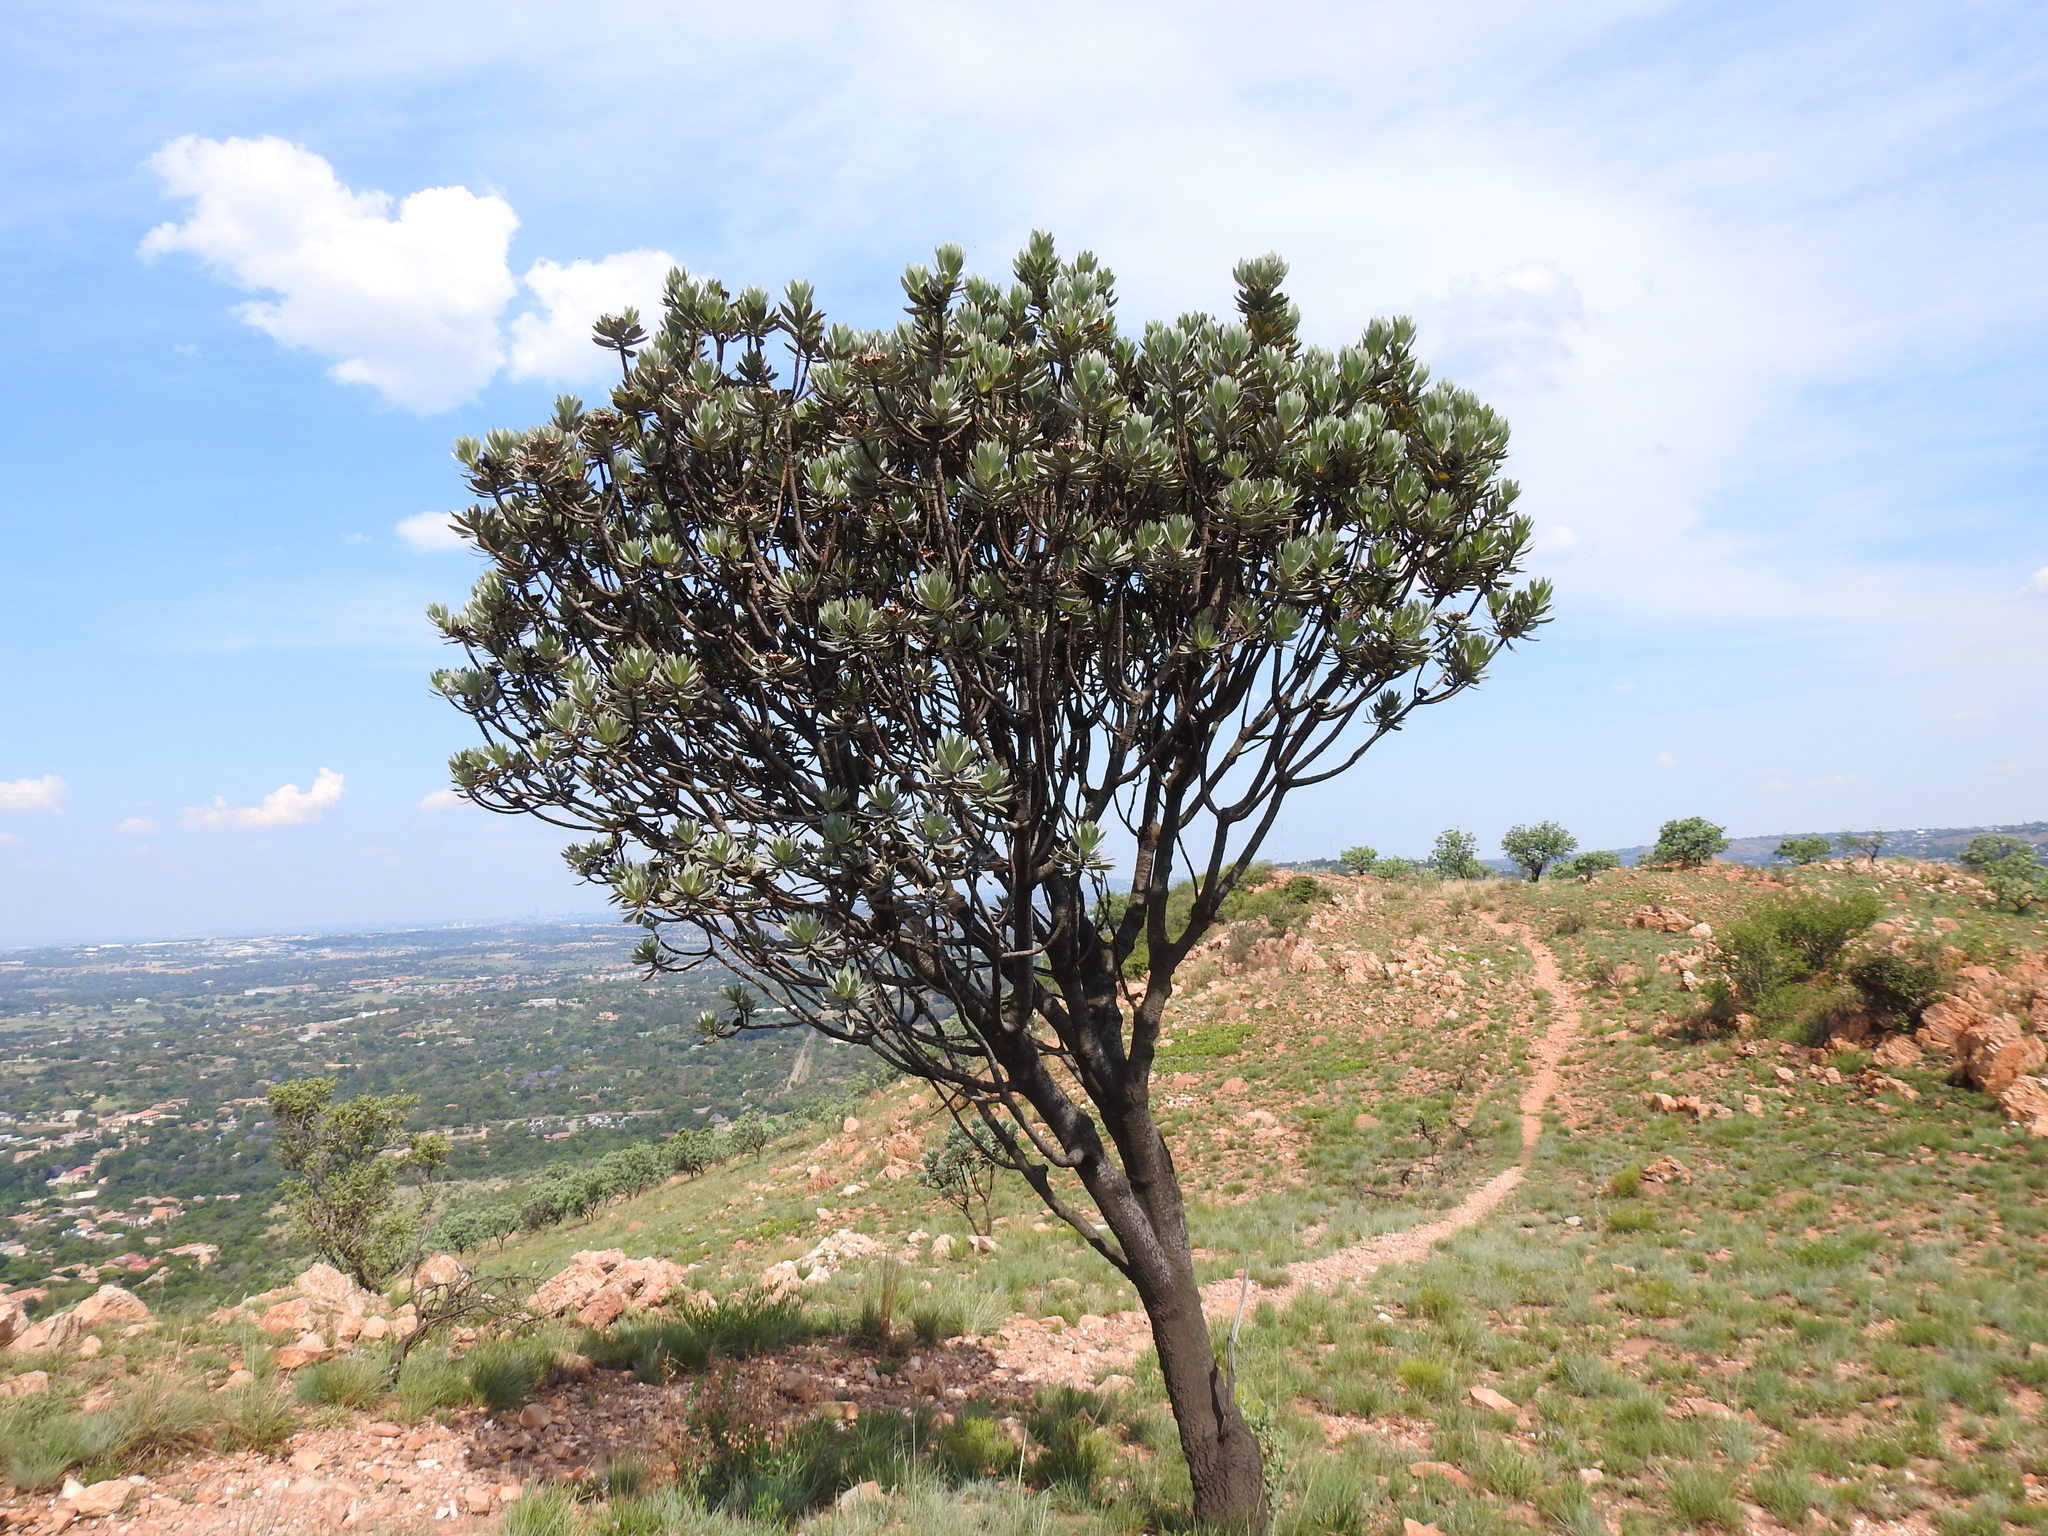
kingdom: Plantae
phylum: Tracheophyta
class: Magnoliopsida
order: Proteales
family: Proteaceae
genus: Protea
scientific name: Protea roupelliae
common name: Silver sugarbush
